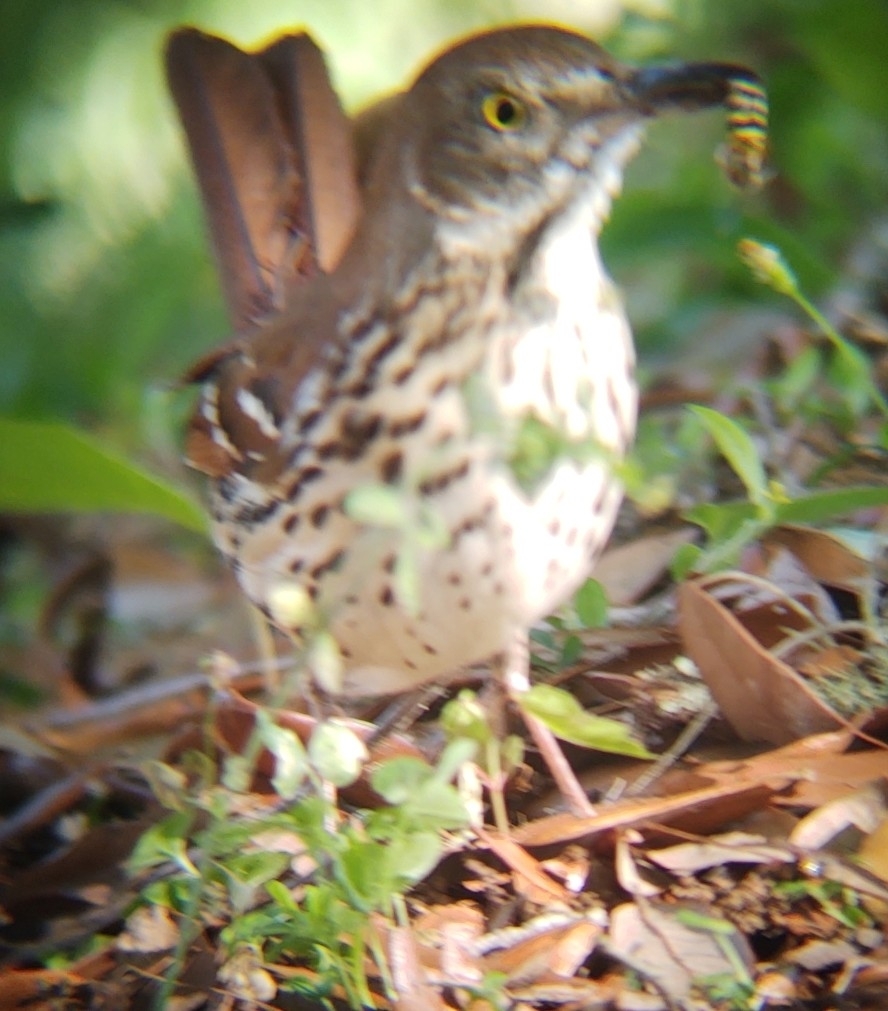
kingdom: Animalia
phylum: Chordata
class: Aves
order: Passeriformes
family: Mimidae
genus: Toxostoma
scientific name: Toxostoma rufum
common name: Brown thrasher
